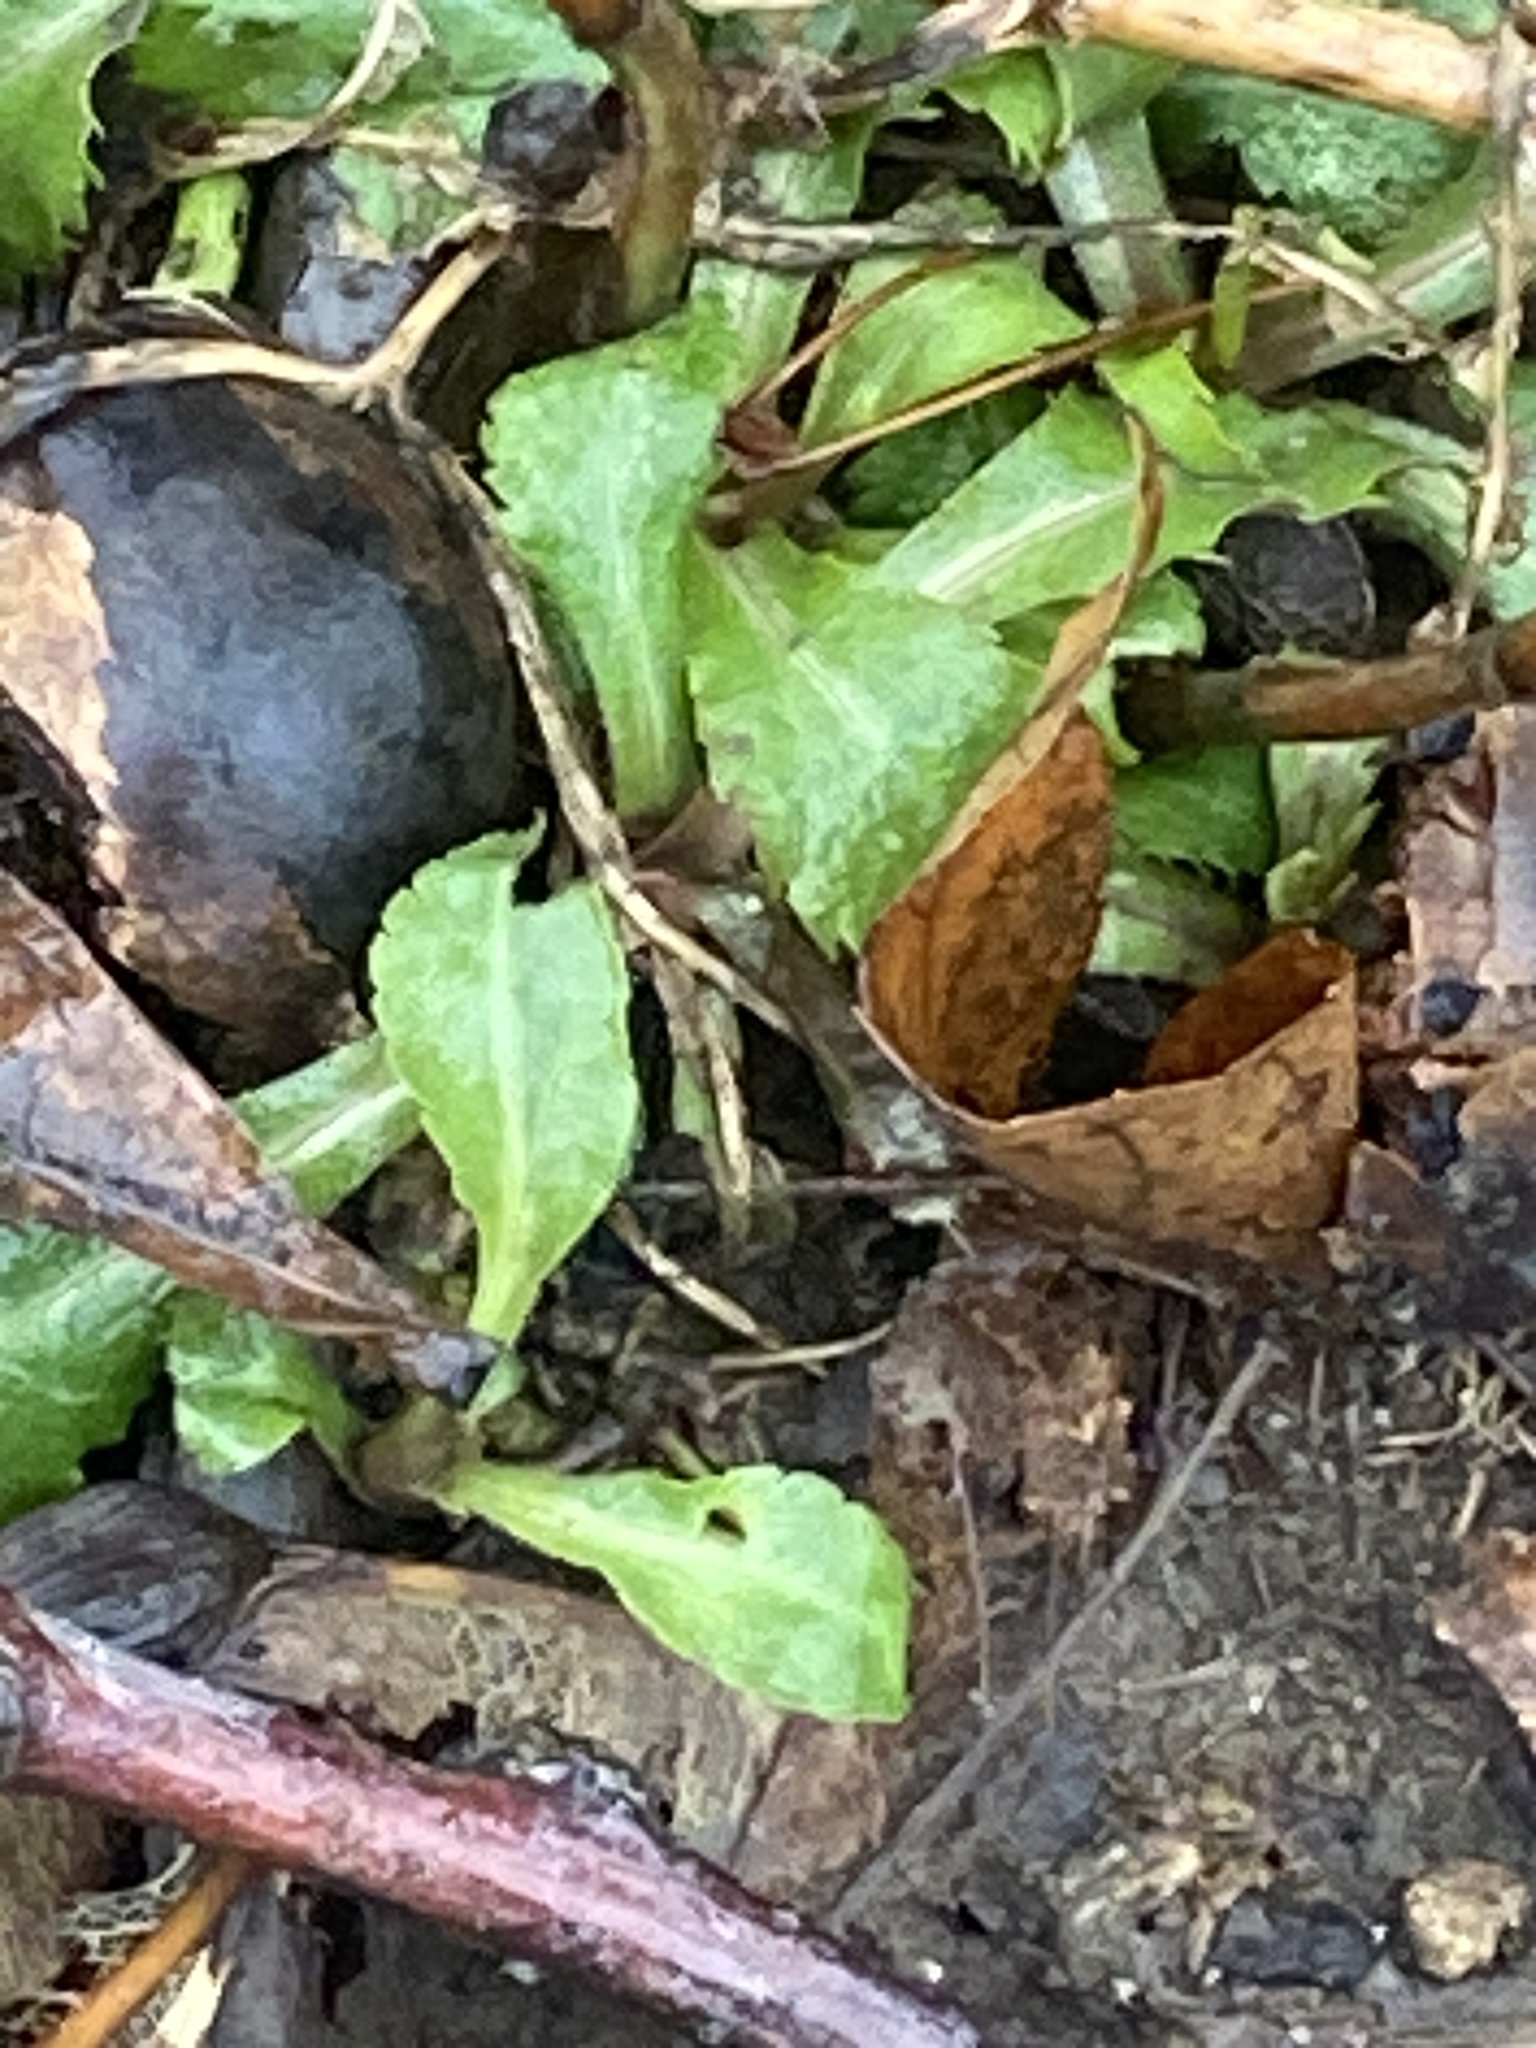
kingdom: Plantae
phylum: Tracheophyta
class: Magnoliopsida
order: Asterales
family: Asteraceae
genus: Solidago
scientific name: Solidago caesia
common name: Woodland goldenrod
